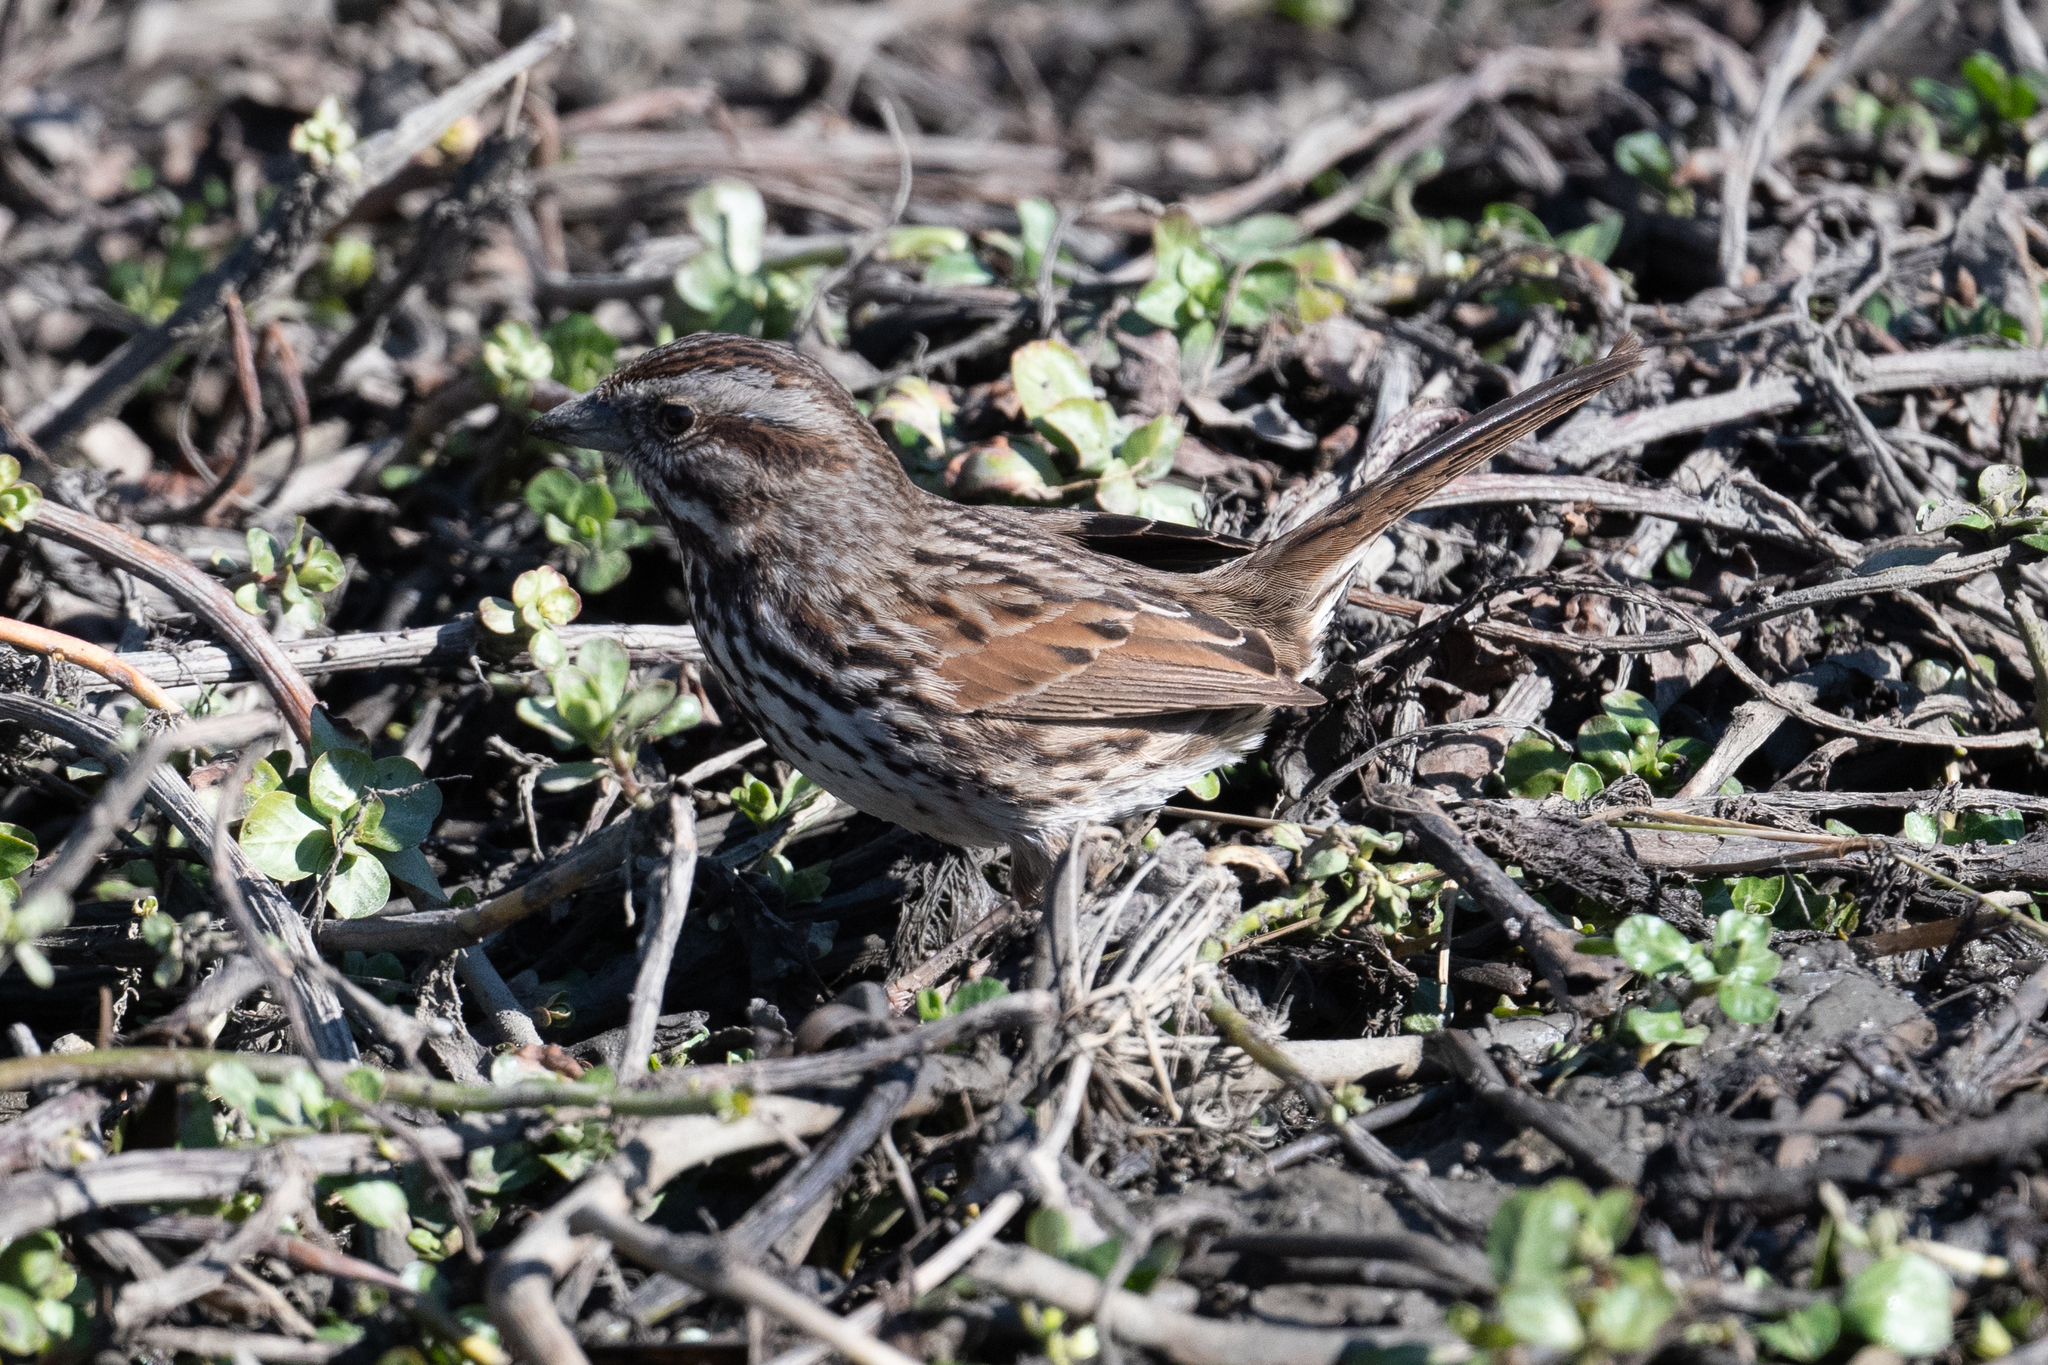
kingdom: Animalia
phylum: Chordata
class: Aves
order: Passeriformes
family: Passerellidae
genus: Melospiza
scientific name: Melospiza melodia
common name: Song sparrow
